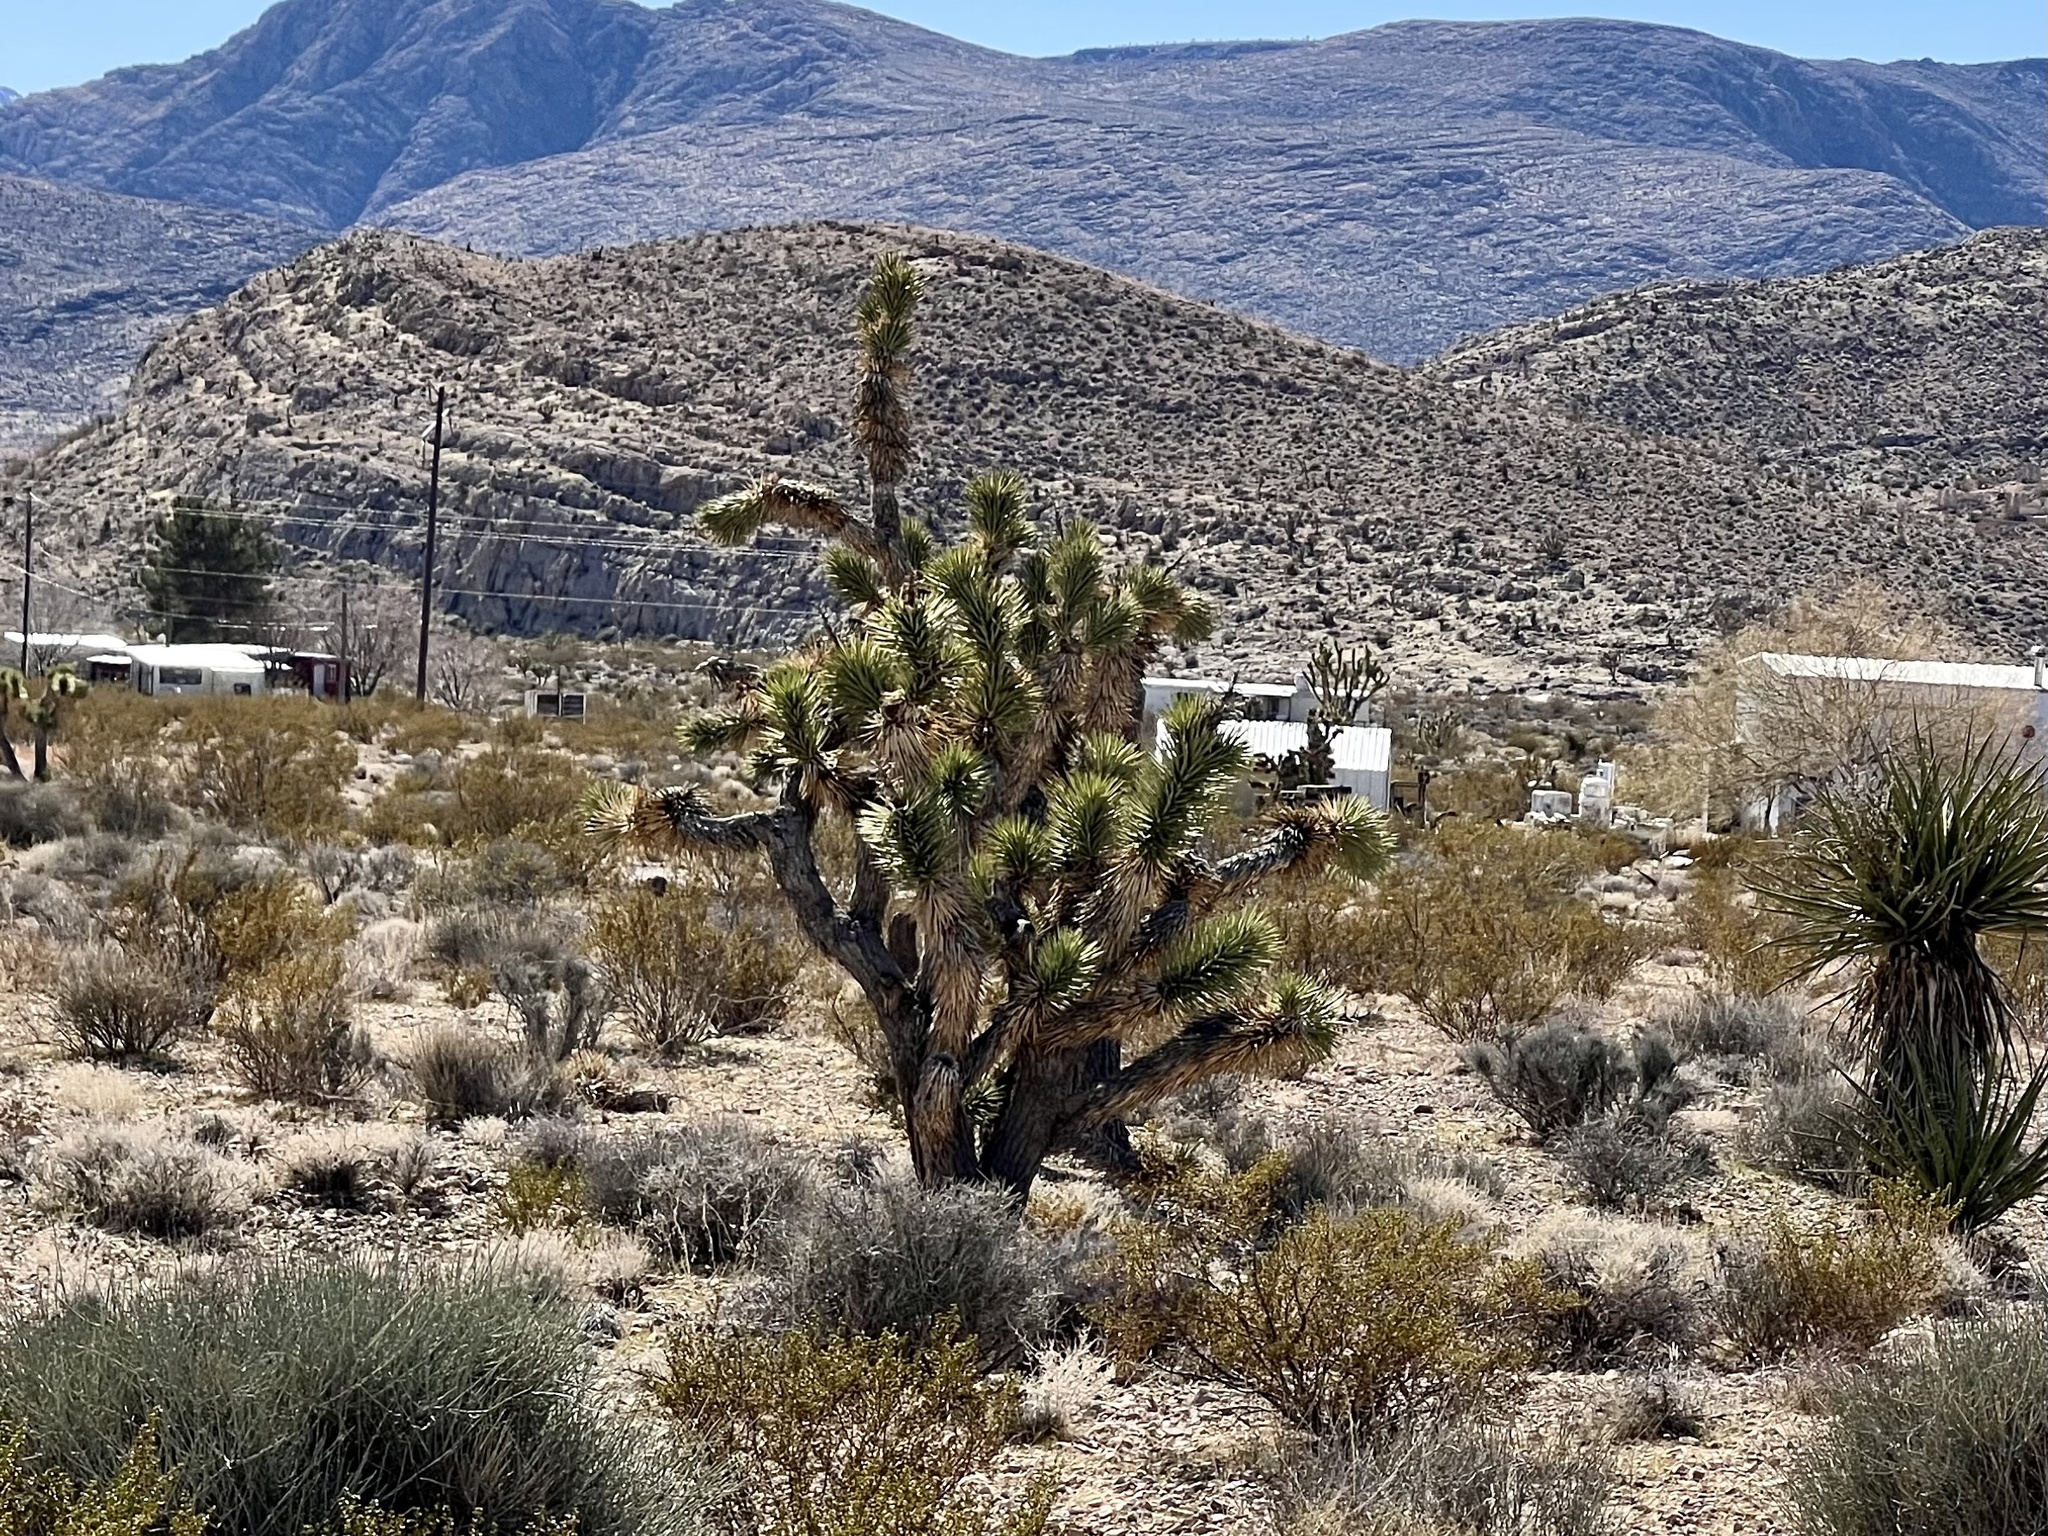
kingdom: Plantae
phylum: Tracheophyta
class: Liliopsida
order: Asparagales
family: Asparagaceae
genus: Yucca
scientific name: Yucca brevifolia
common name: Joshua tree
